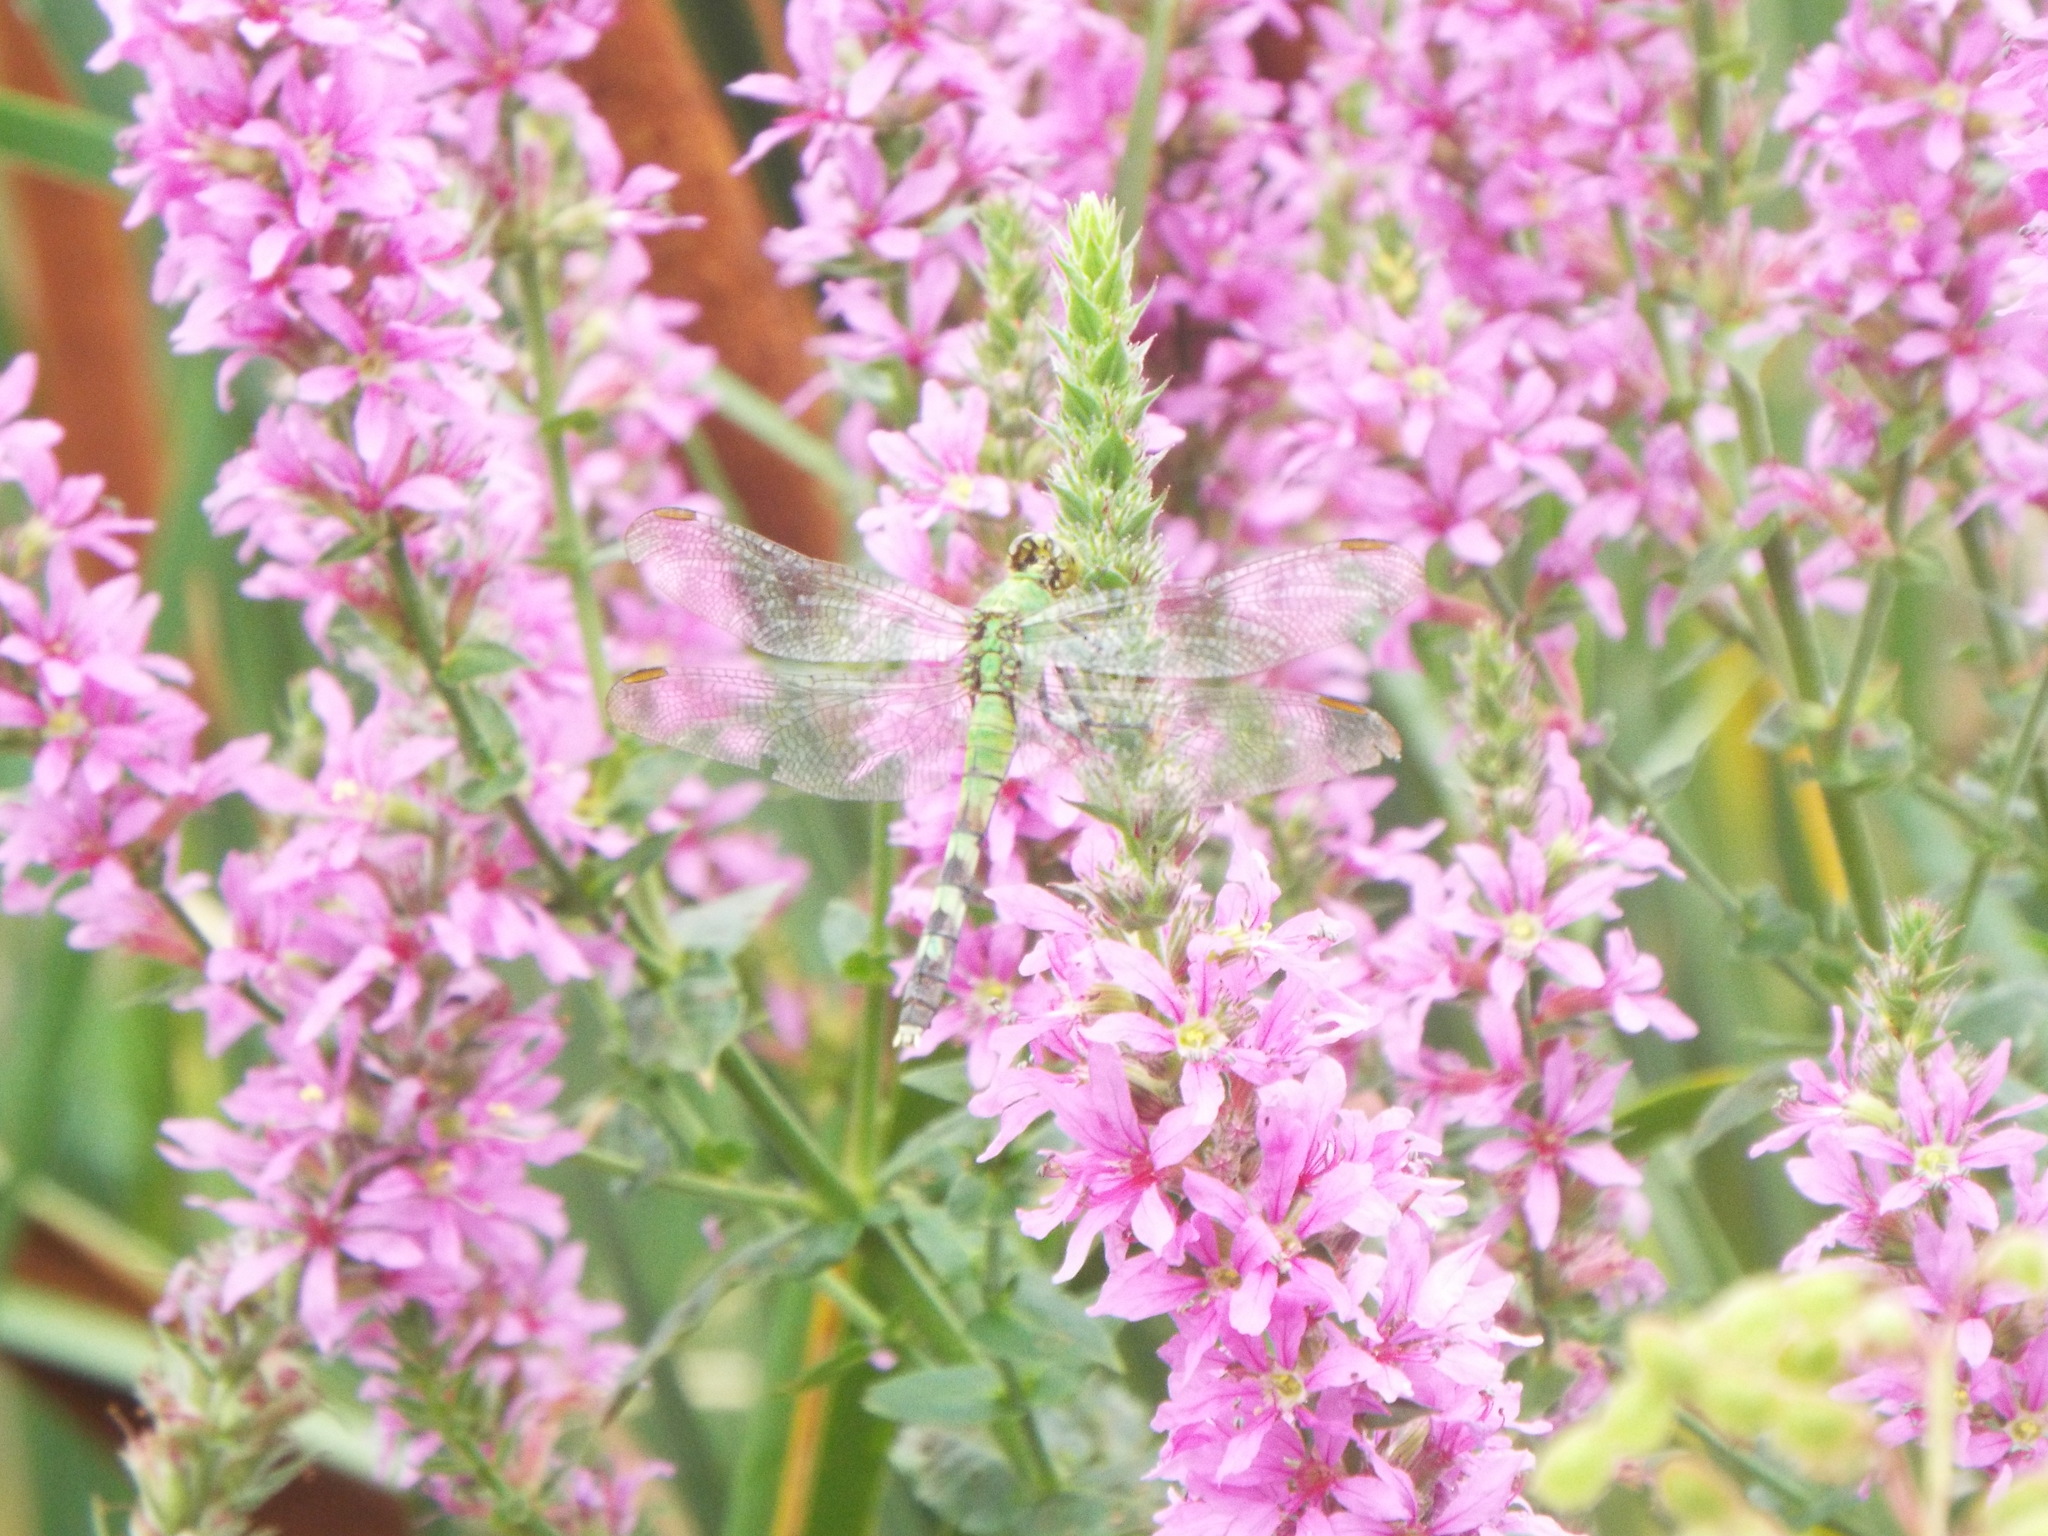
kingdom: Animalia
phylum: Arthropoda
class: Insecta
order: Odonata
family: Libellulidae
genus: Erythemis
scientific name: Erythemis simplicicollis
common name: Eastern pondhawk
